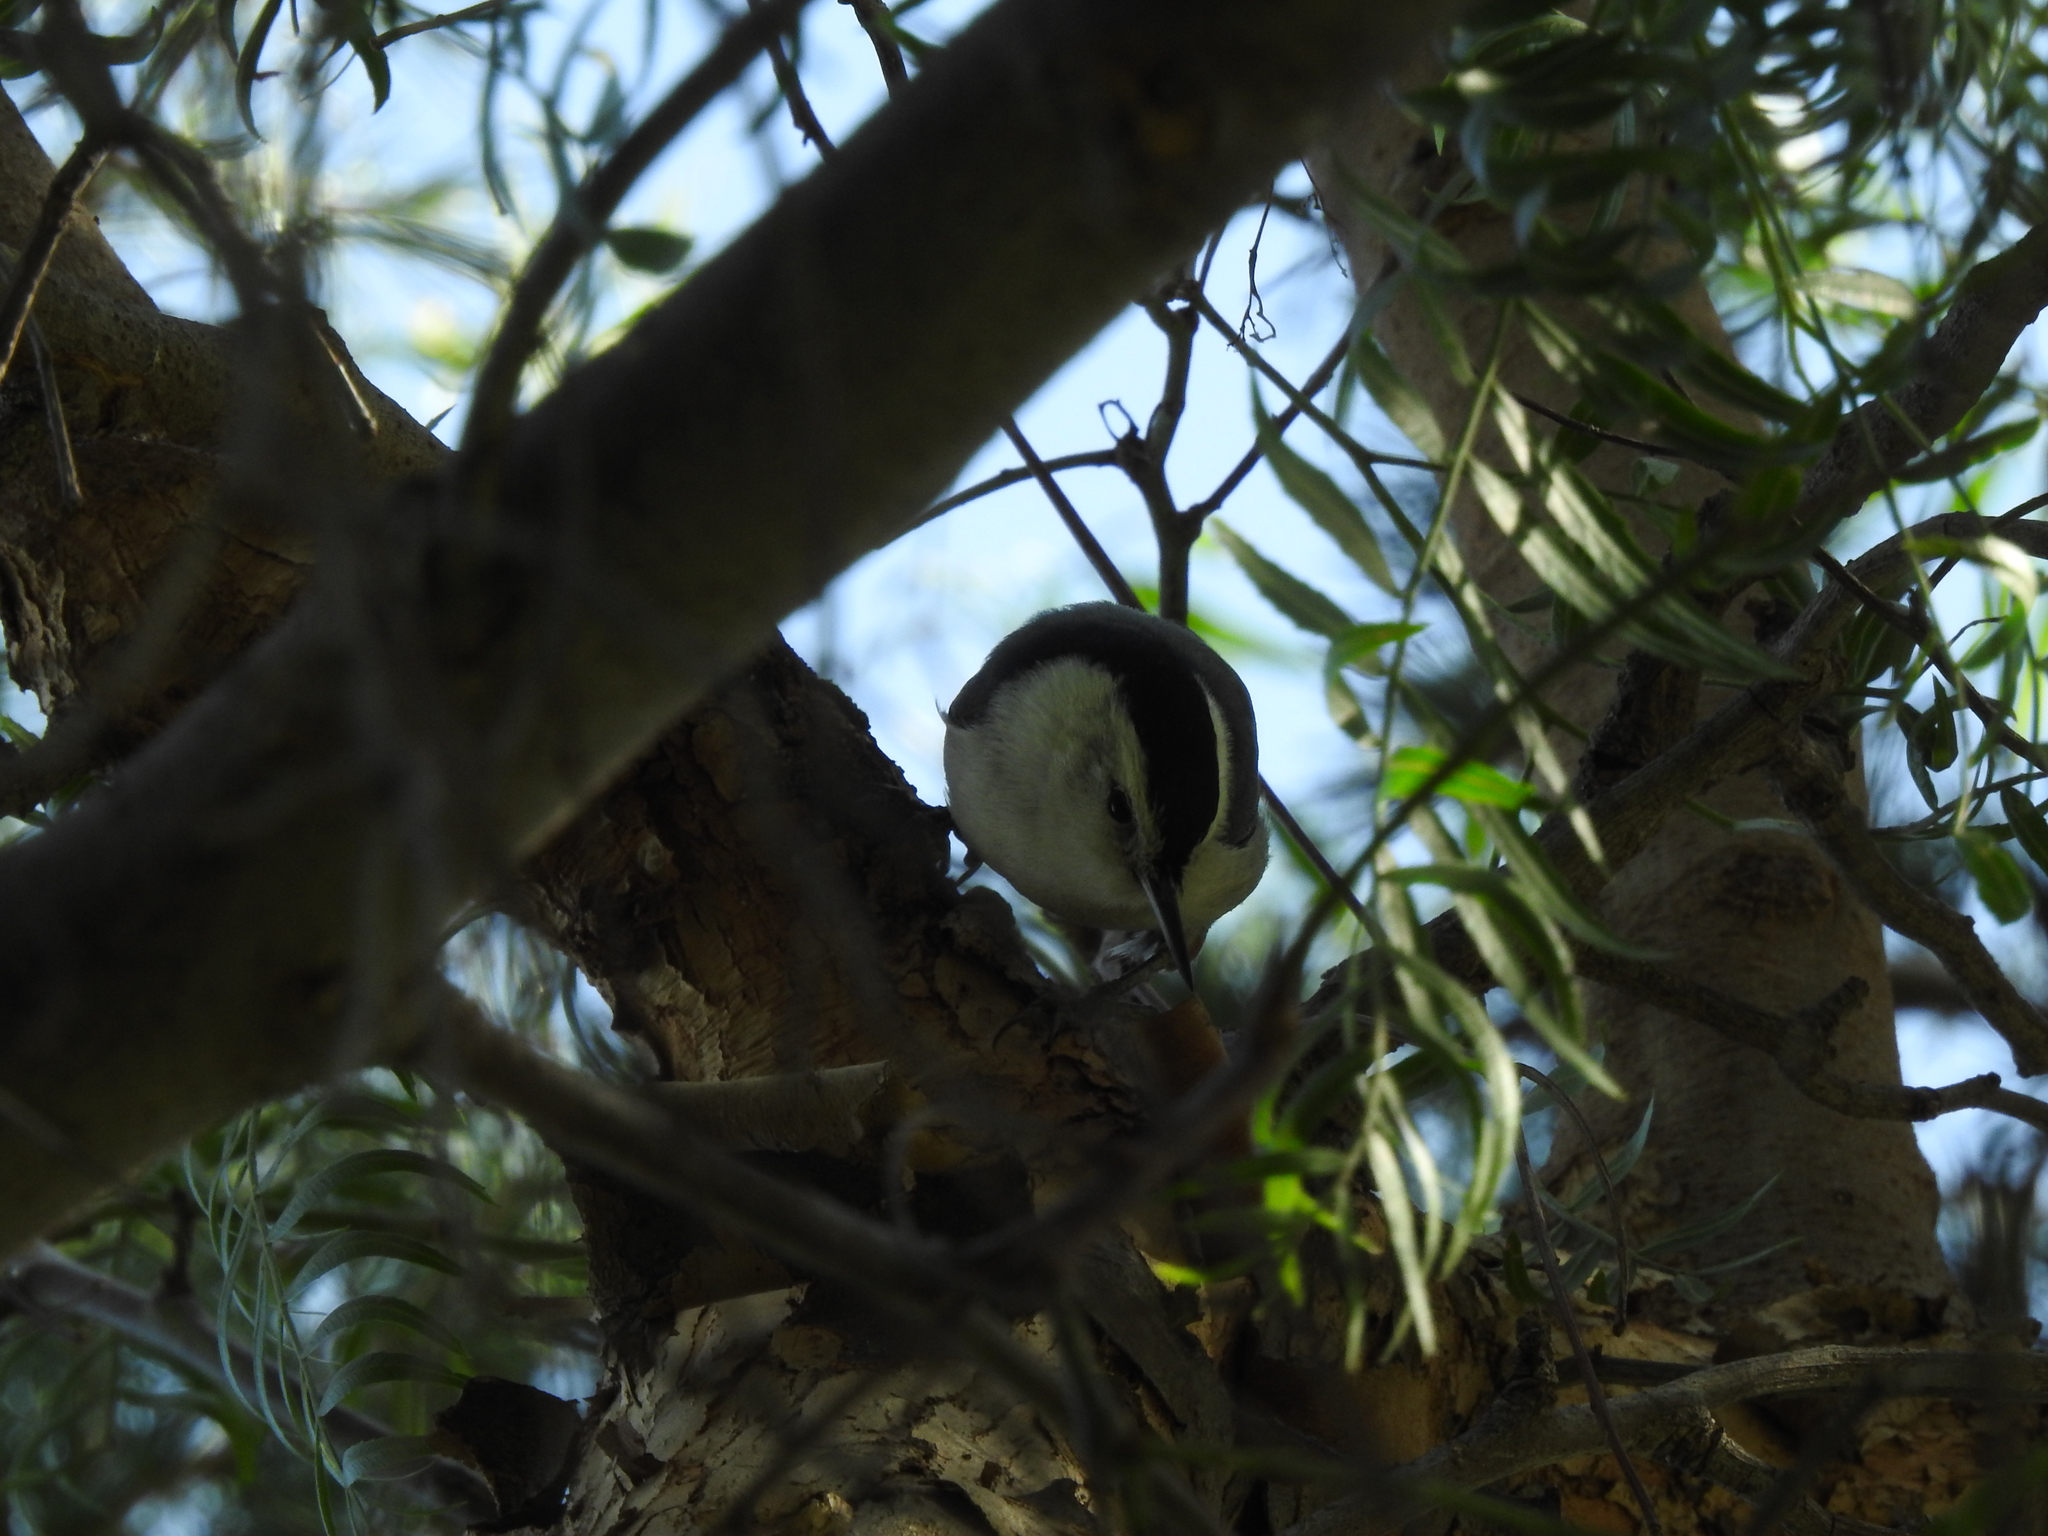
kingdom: Animalia
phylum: Chordata
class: Aves
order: Passeriformes
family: Sittidae
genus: Sitta
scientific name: Sitta carolinensis
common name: White-breasted nuthatch
